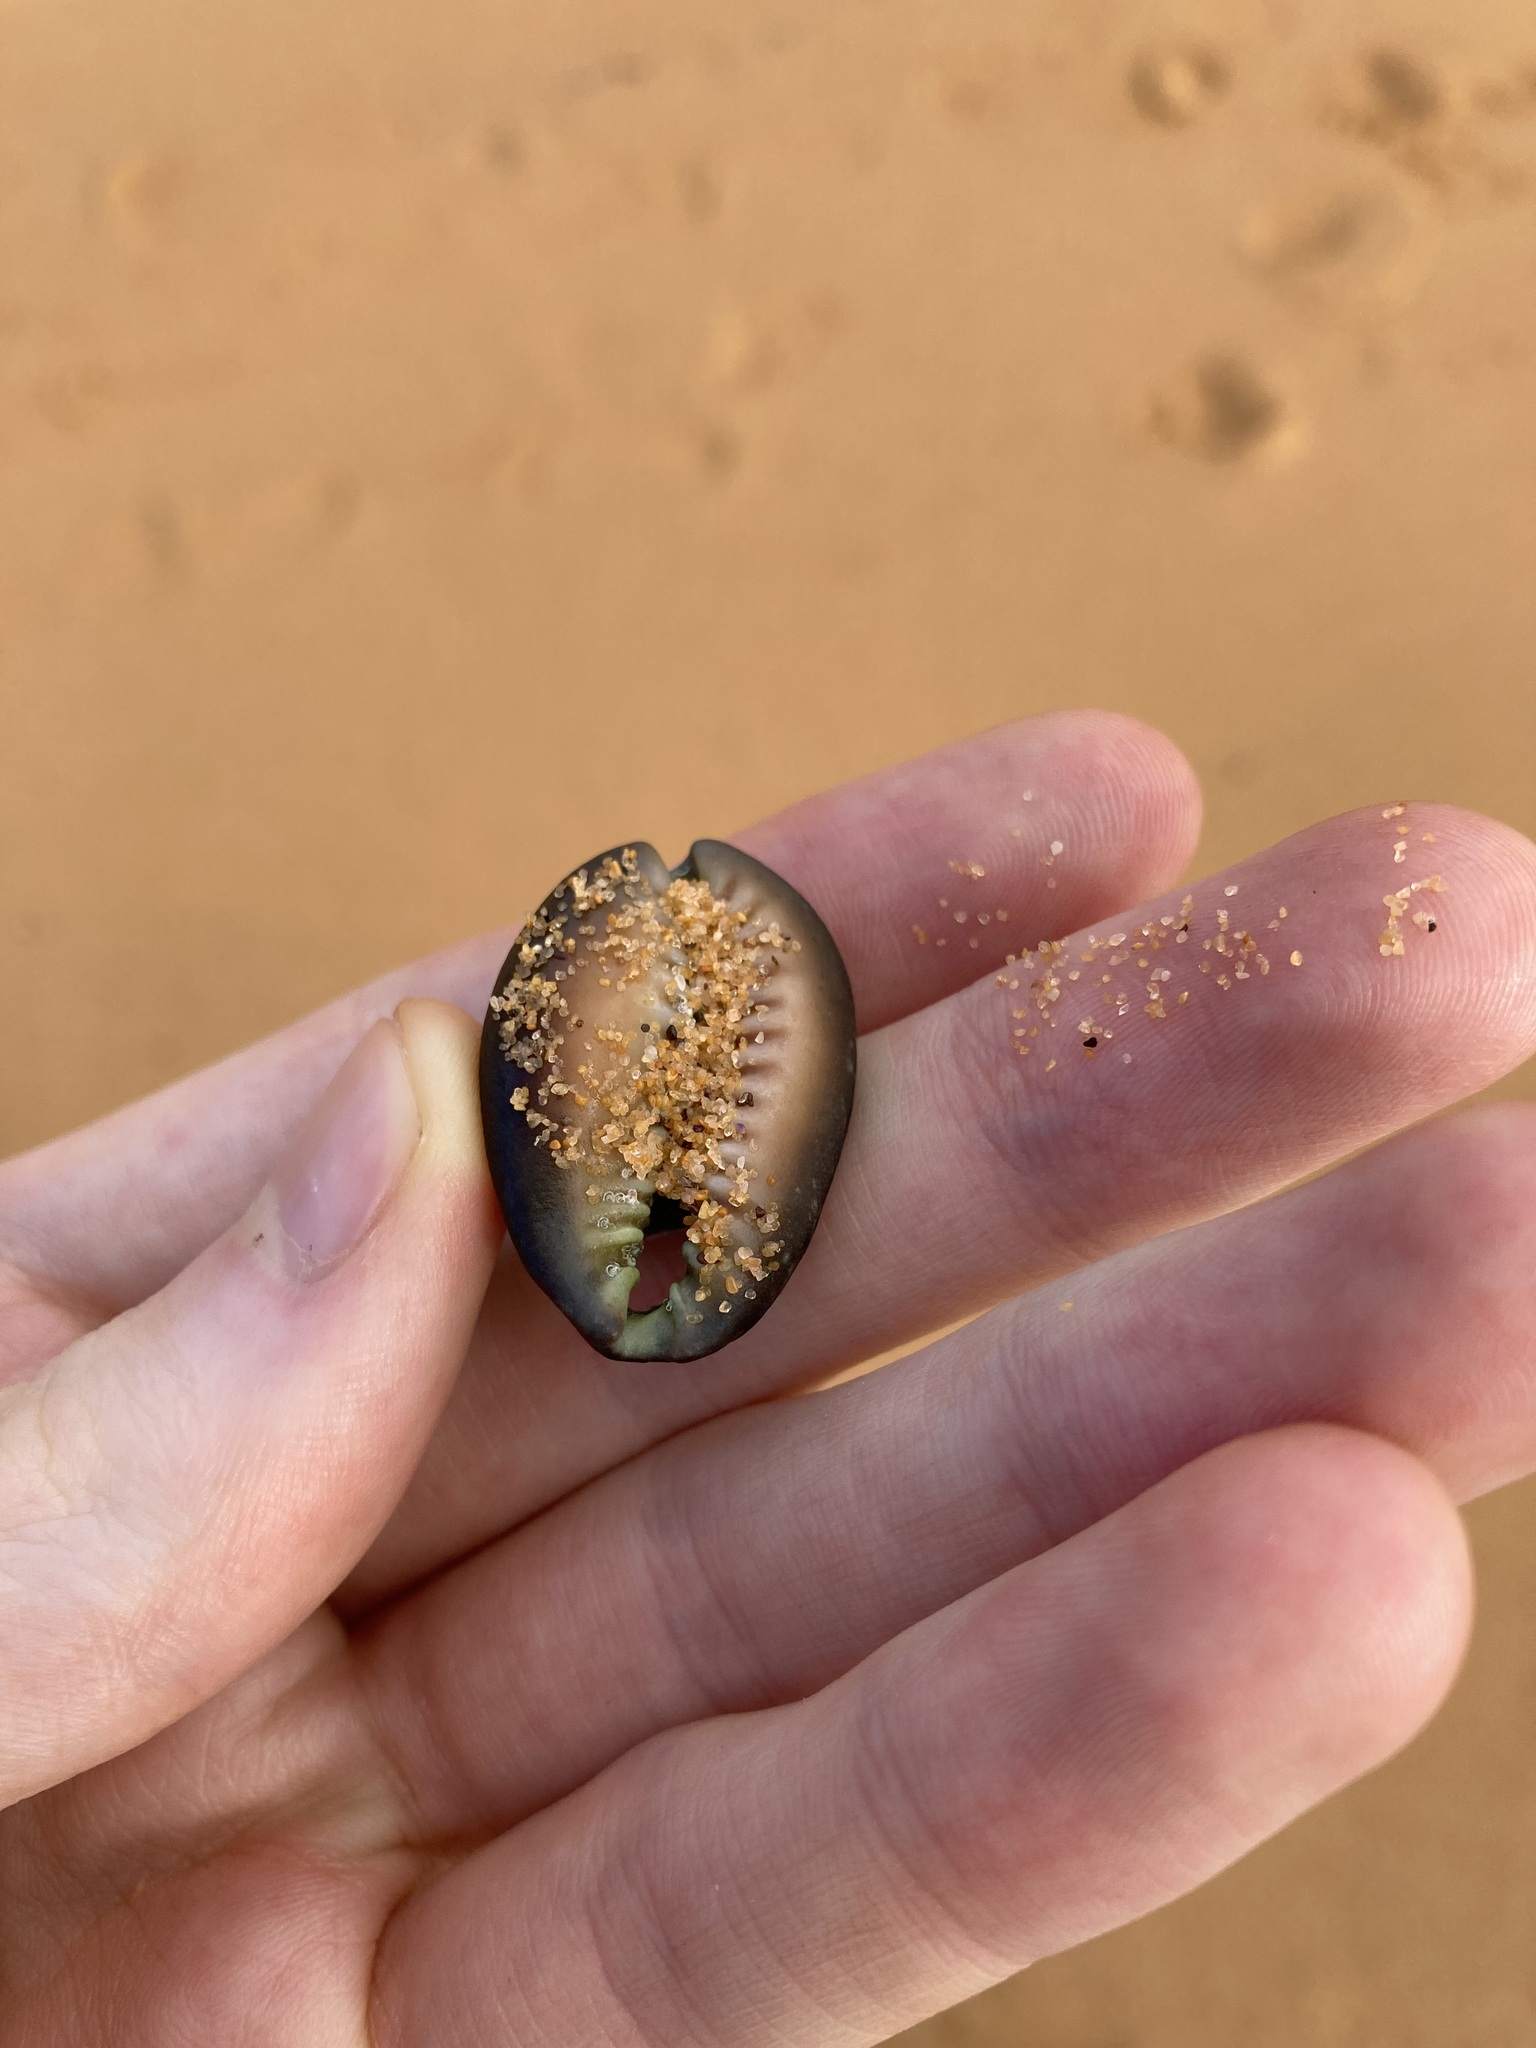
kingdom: Animalia
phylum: Mollusca
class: Gastropoda
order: Littorinimorpha
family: Cypraeidae
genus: Monetaria
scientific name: Monetaria caputserpentis
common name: Serpent's head cowrie
